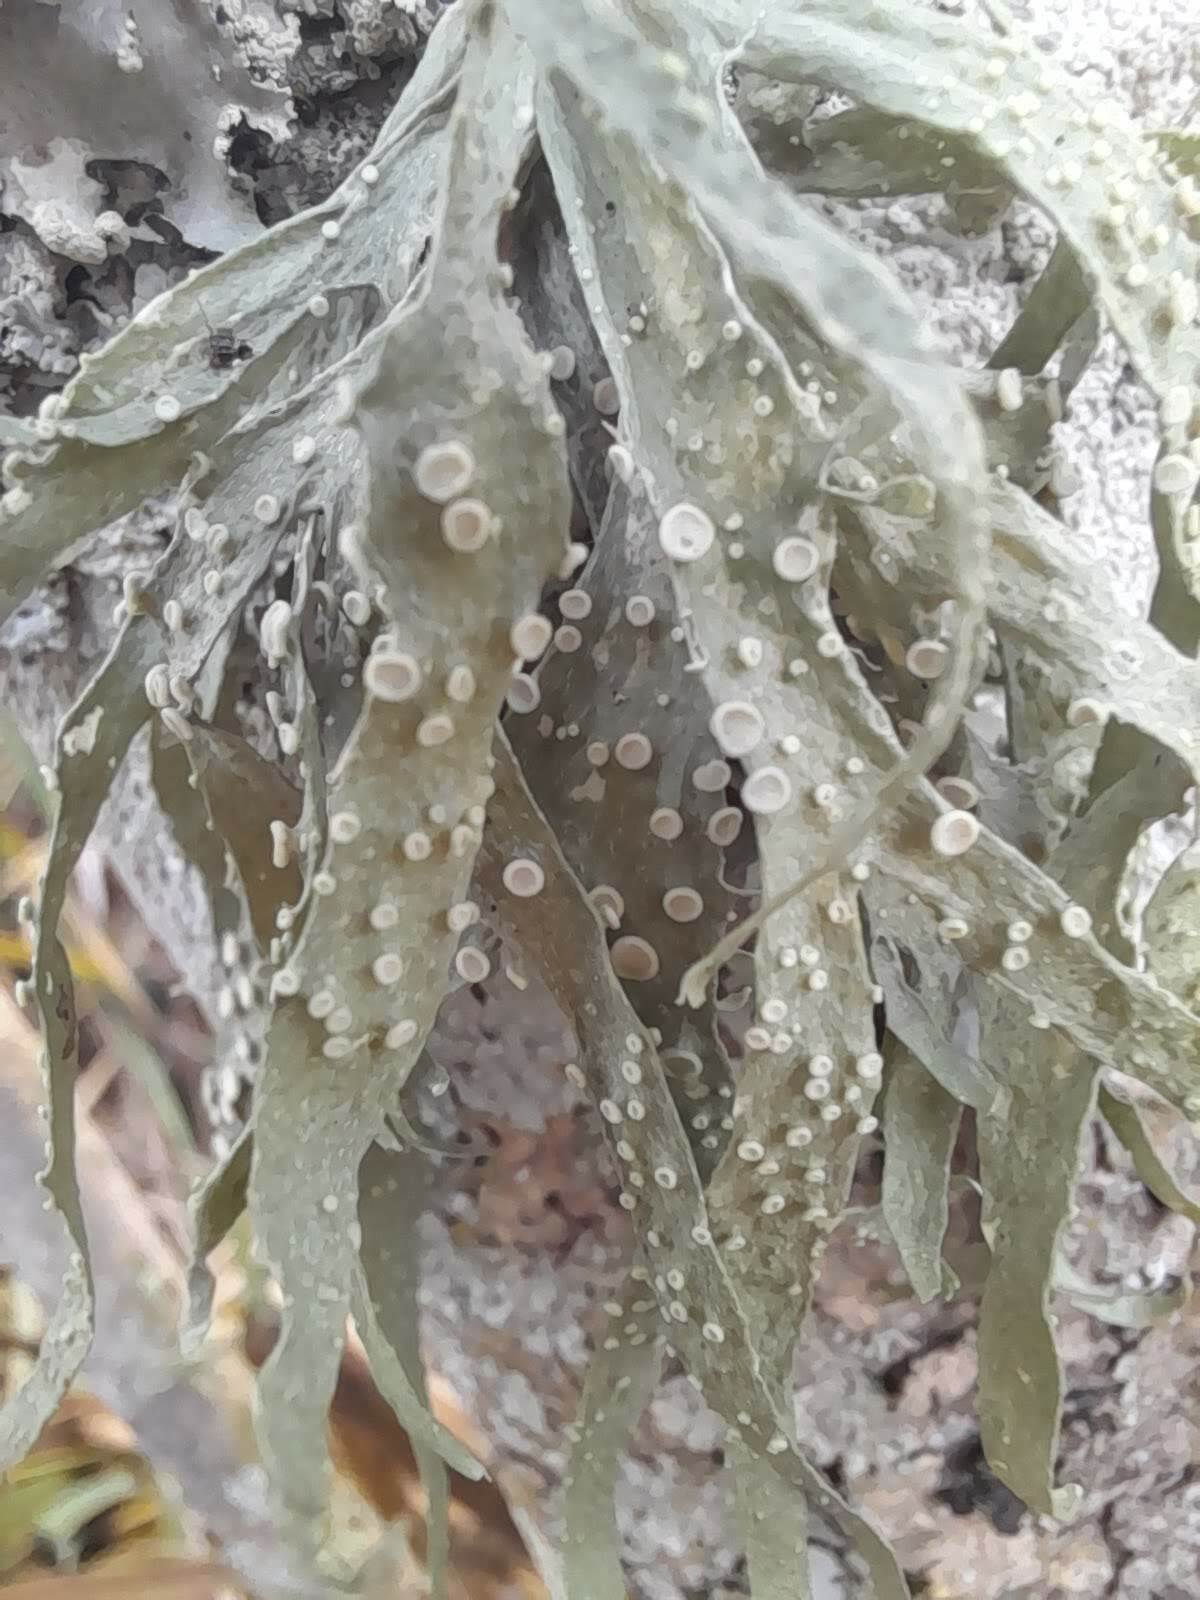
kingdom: Fungi
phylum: Ascomycota
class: Lecanoromycetes
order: Lecanorales
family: Ramalinaceae
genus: Ramalina
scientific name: Ramalina celastri
